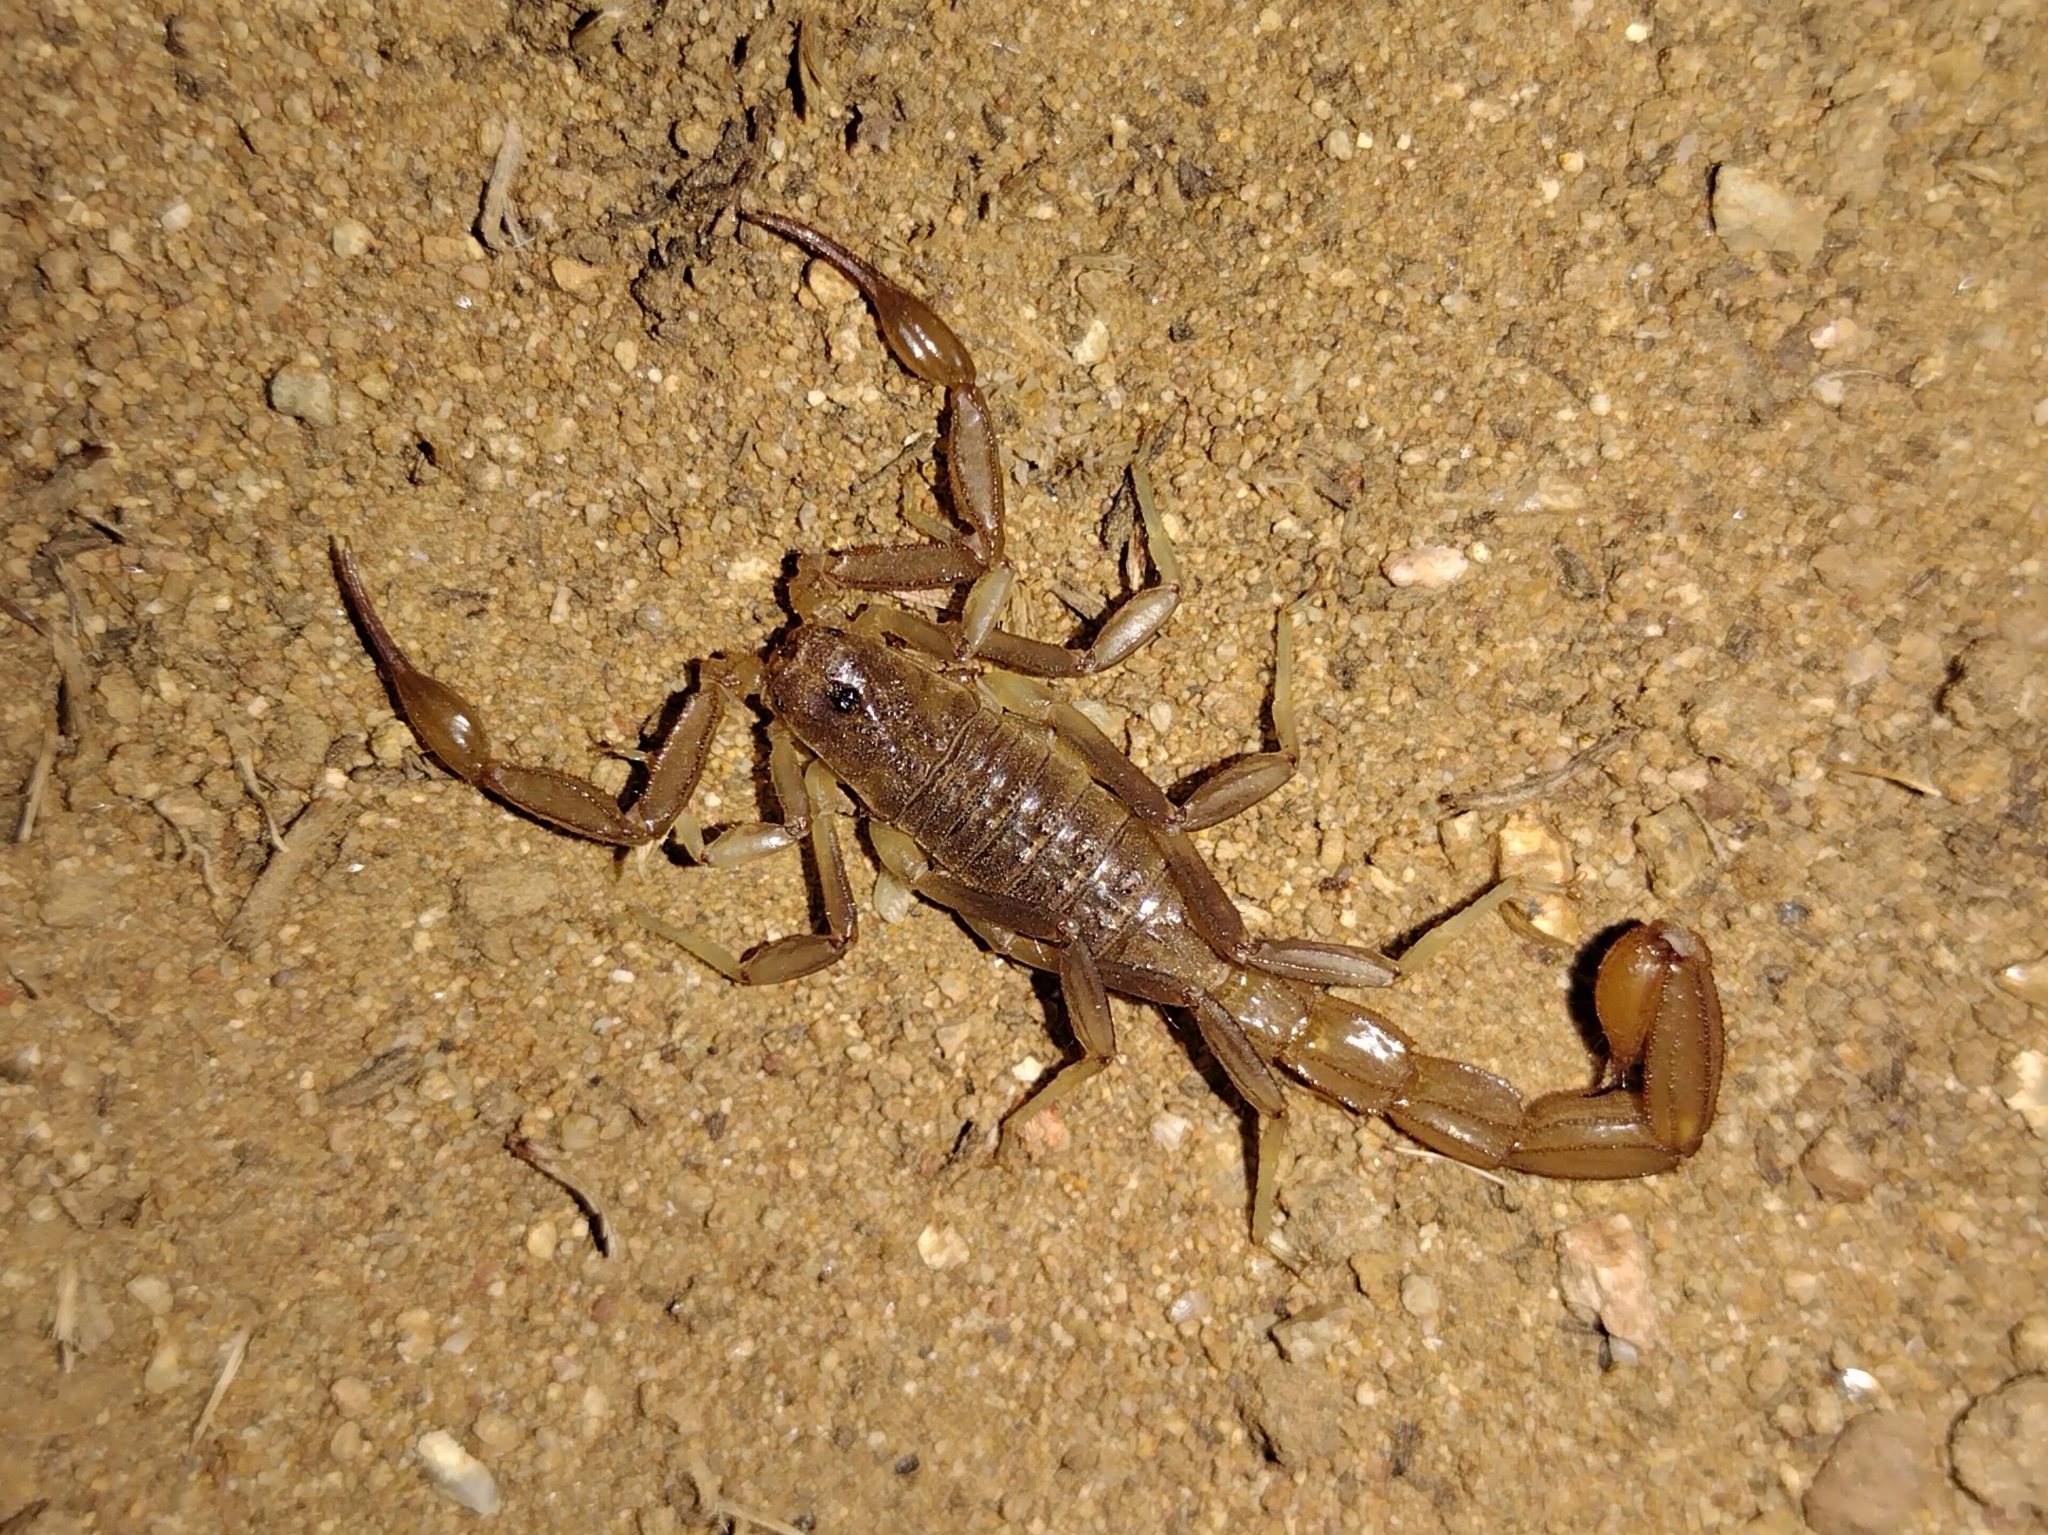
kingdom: Animalia
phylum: Arthropoda
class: Arachnida
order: Scorpiones
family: Vaejovidae
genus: Paravaejovis
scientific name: Paravaejovis puritanus
